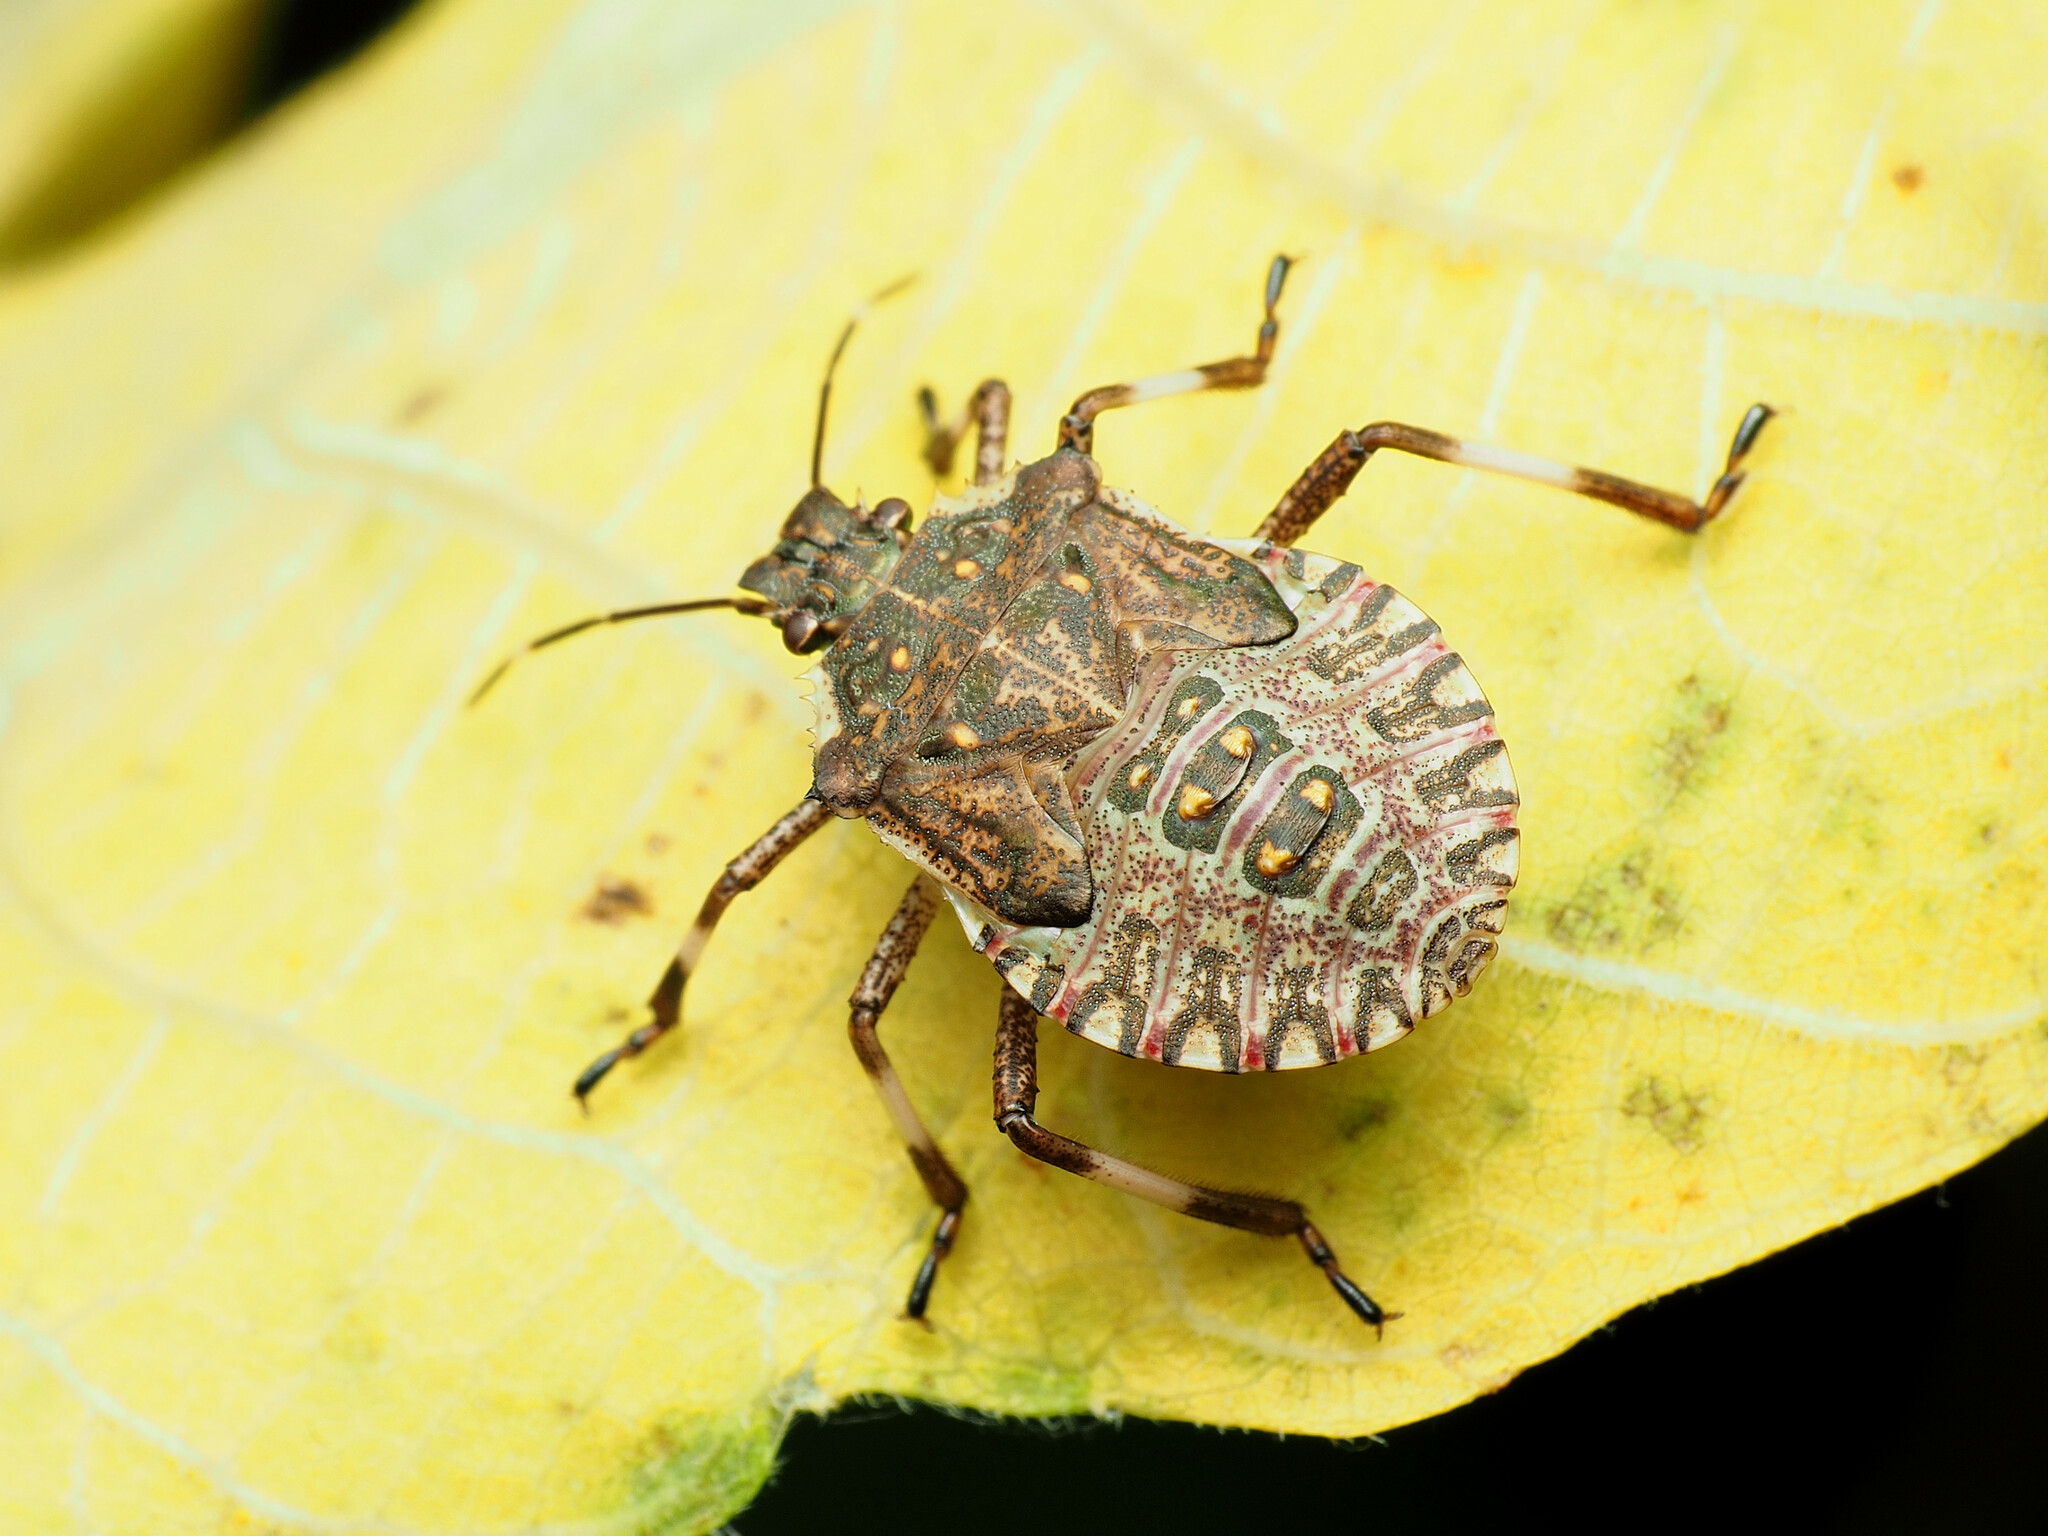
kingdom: Animalia
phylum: Arthropoda
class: Insecta
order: Hemiptera
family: Pentatomidae
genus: Halyomorpha
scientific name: Halyomorpha halys
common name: Brown marmorated stink bug
